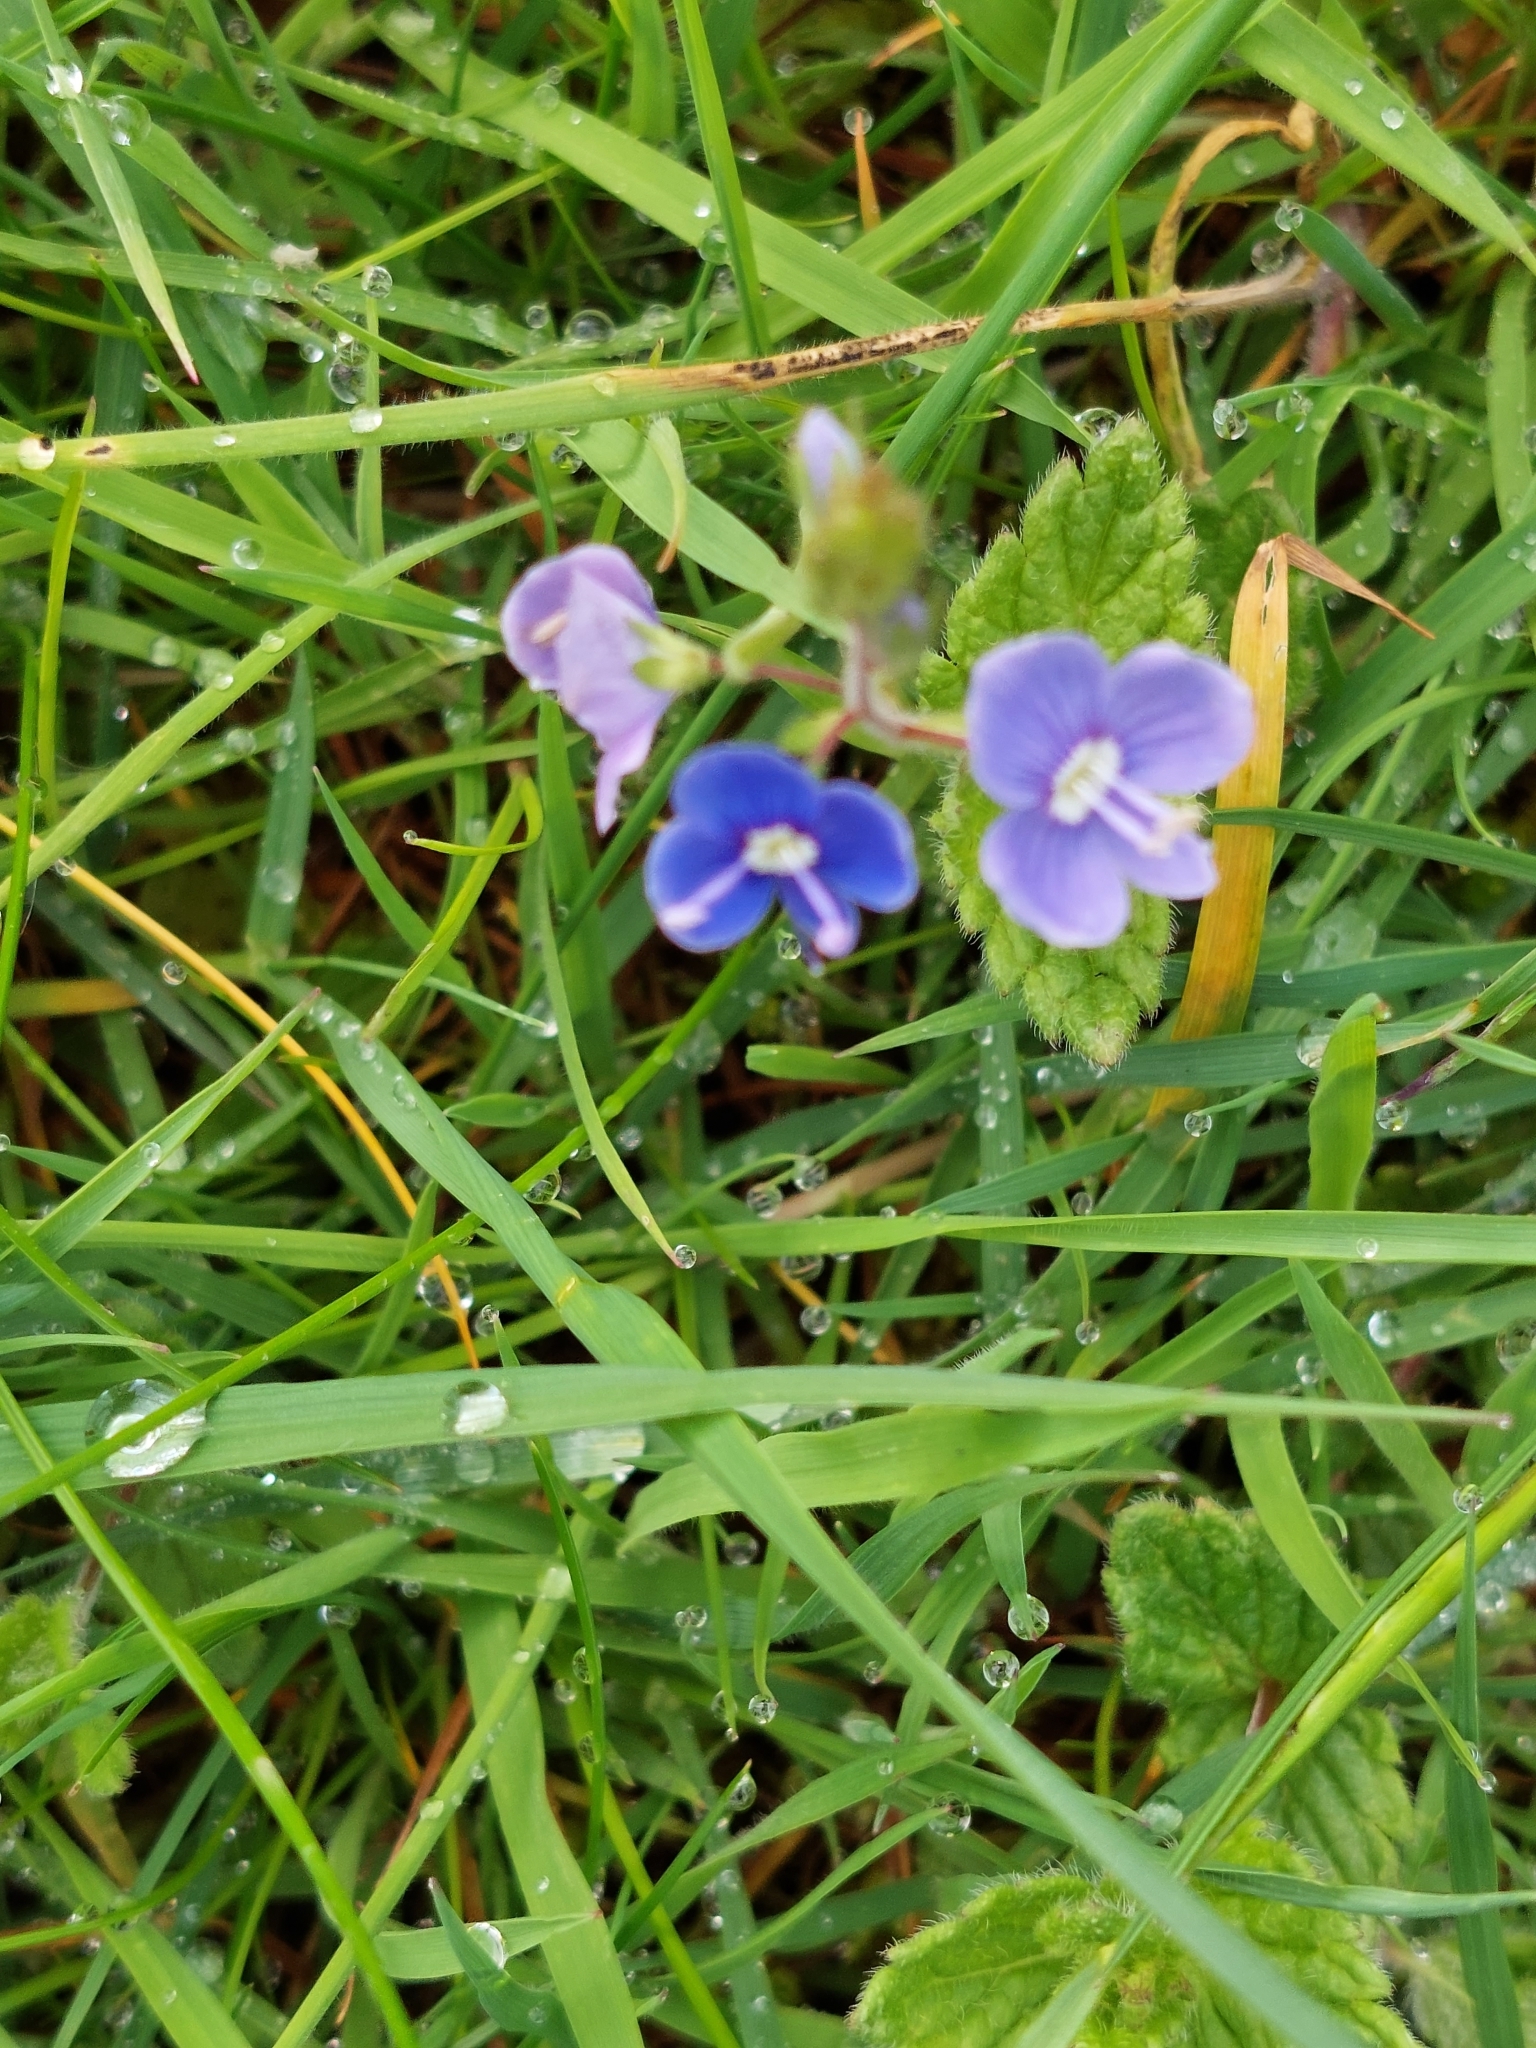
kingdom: Plantae
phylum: Tracheophyta
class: Magnoliopsida
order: Lamiales
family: Plantaginaceae
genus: Veronica
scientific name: Veronica chamaedrys
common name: Germander speedwell
